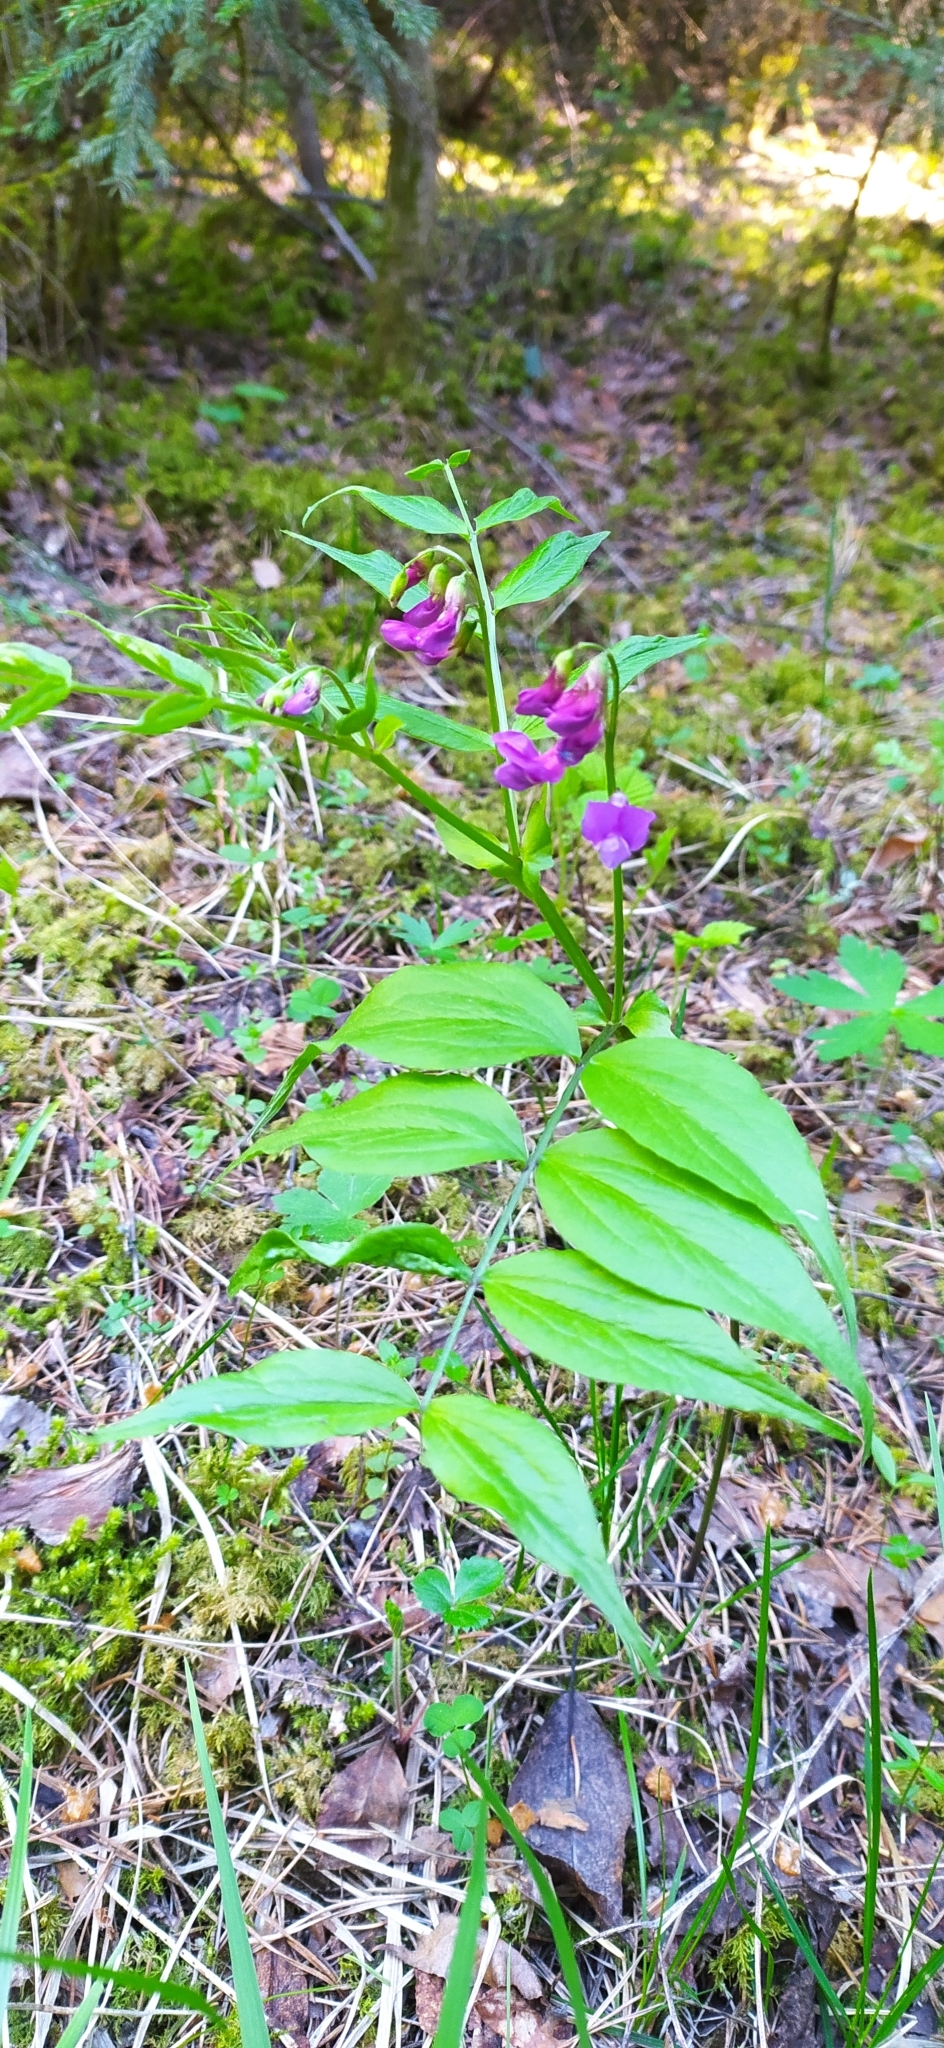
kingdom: Plantae
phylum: Tracheophyta
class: Magnoliopsida
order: Fabales
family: Fabaceae
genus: Lathyrus
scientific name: Lathyrus vernus
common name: Spring pea
